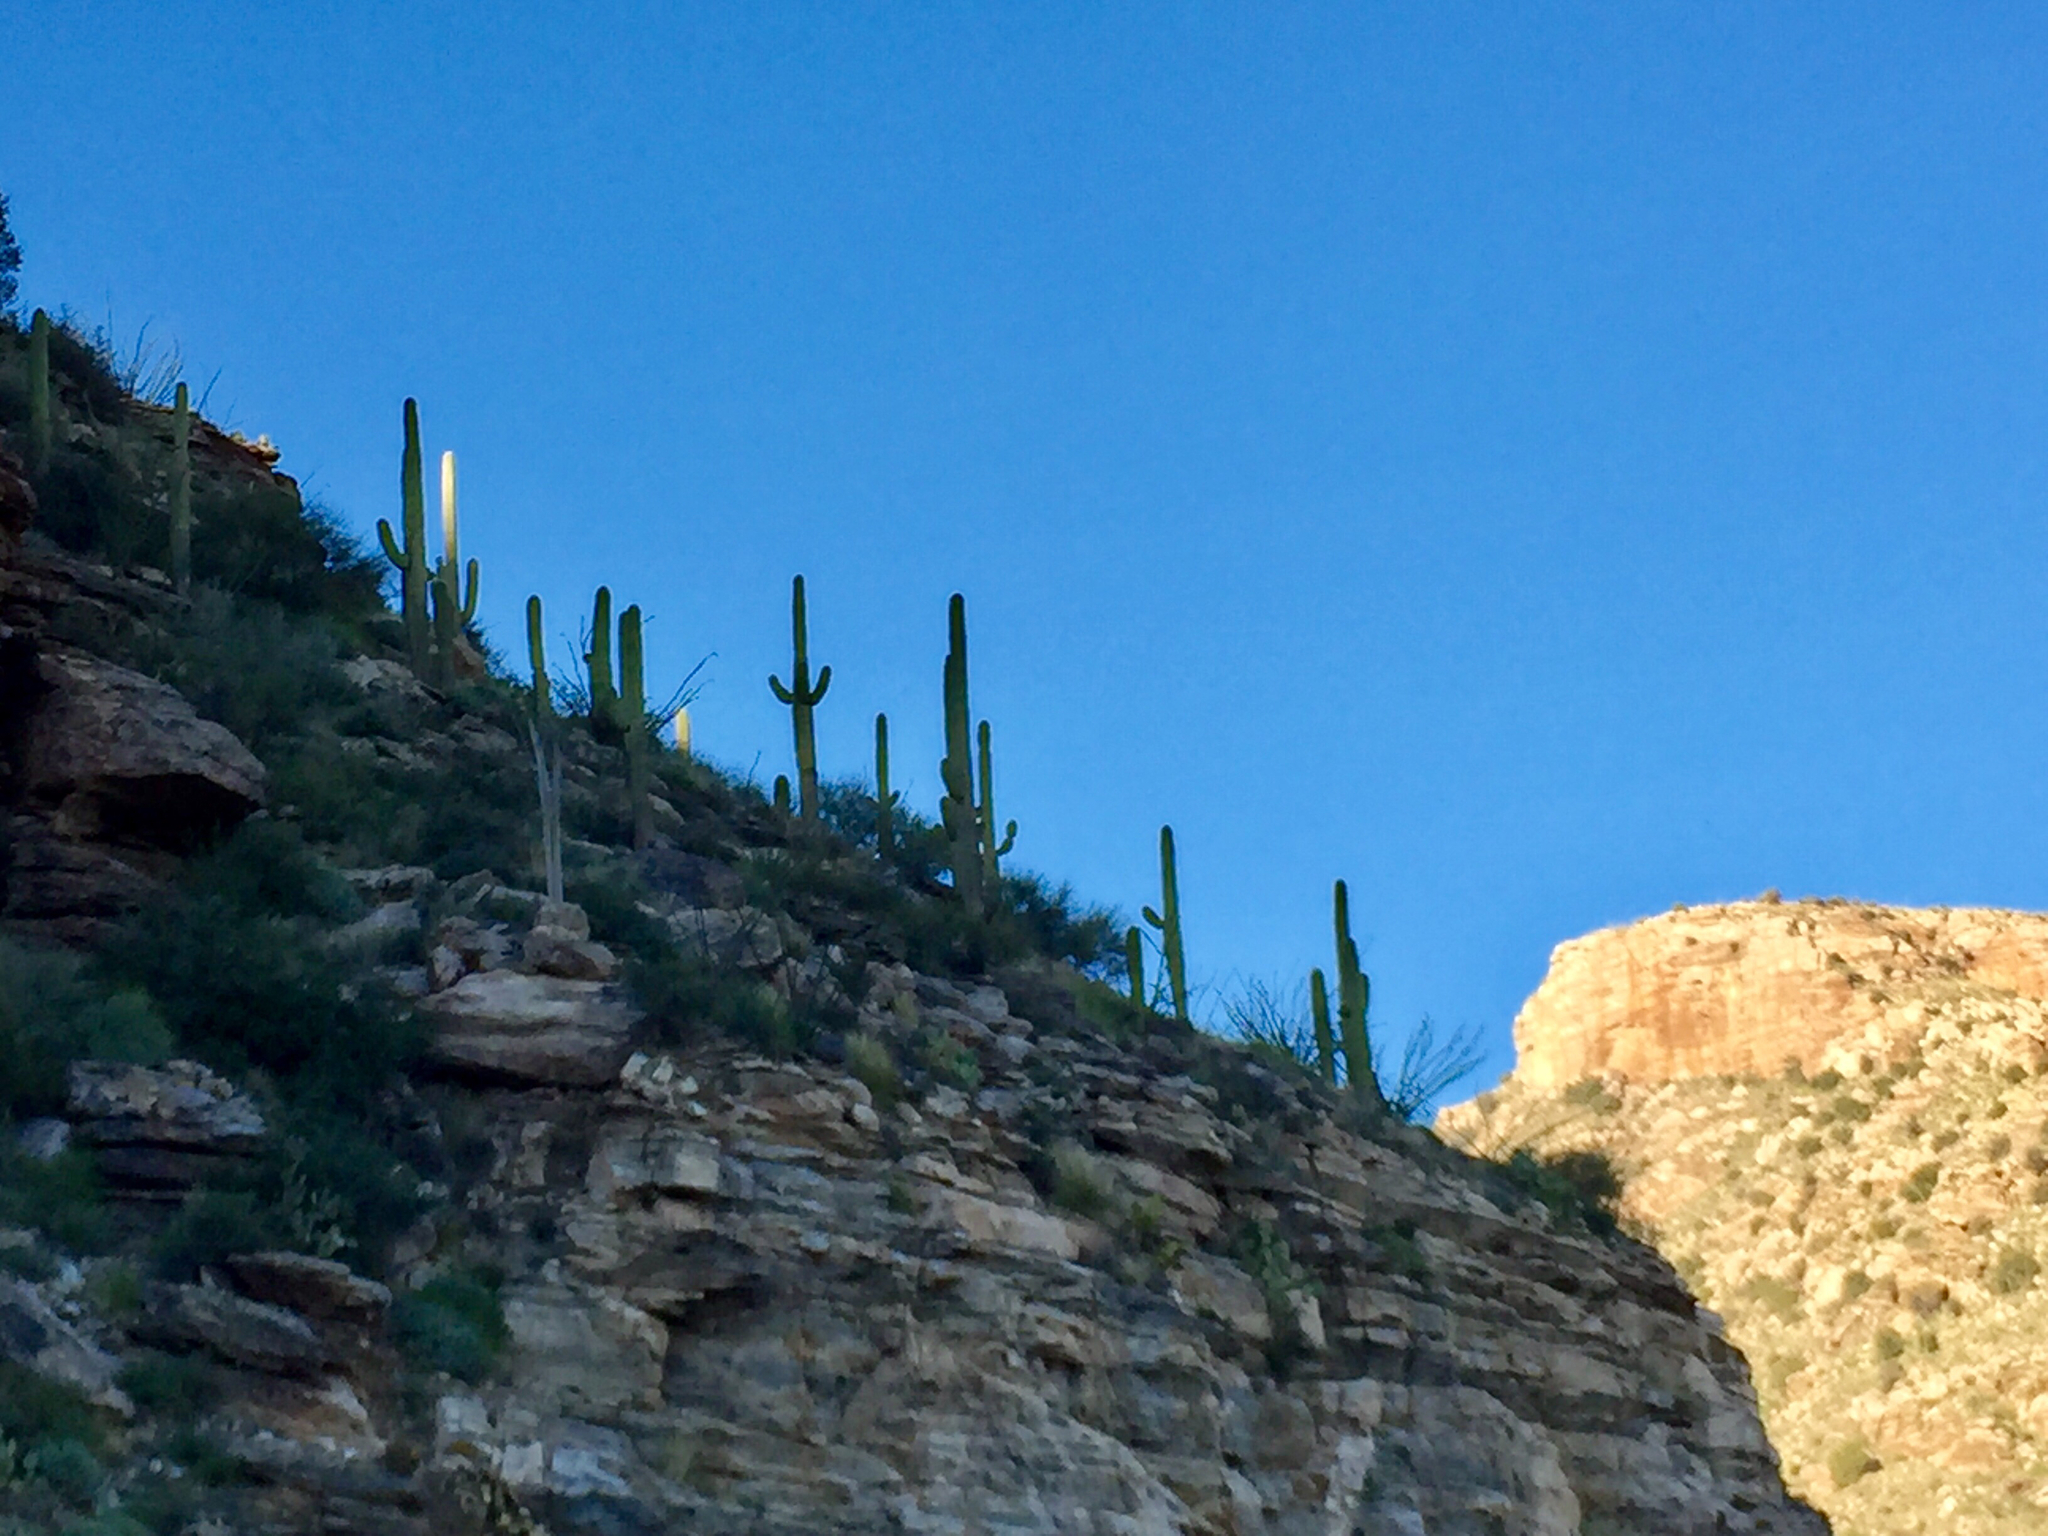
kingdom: Plantae
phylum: Tracheophyta
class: Magnoliopsida
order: Caryophyllales
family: Cactaceae
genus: Carnegiea
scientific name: Carnegiea gigantea
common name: Saguaro
